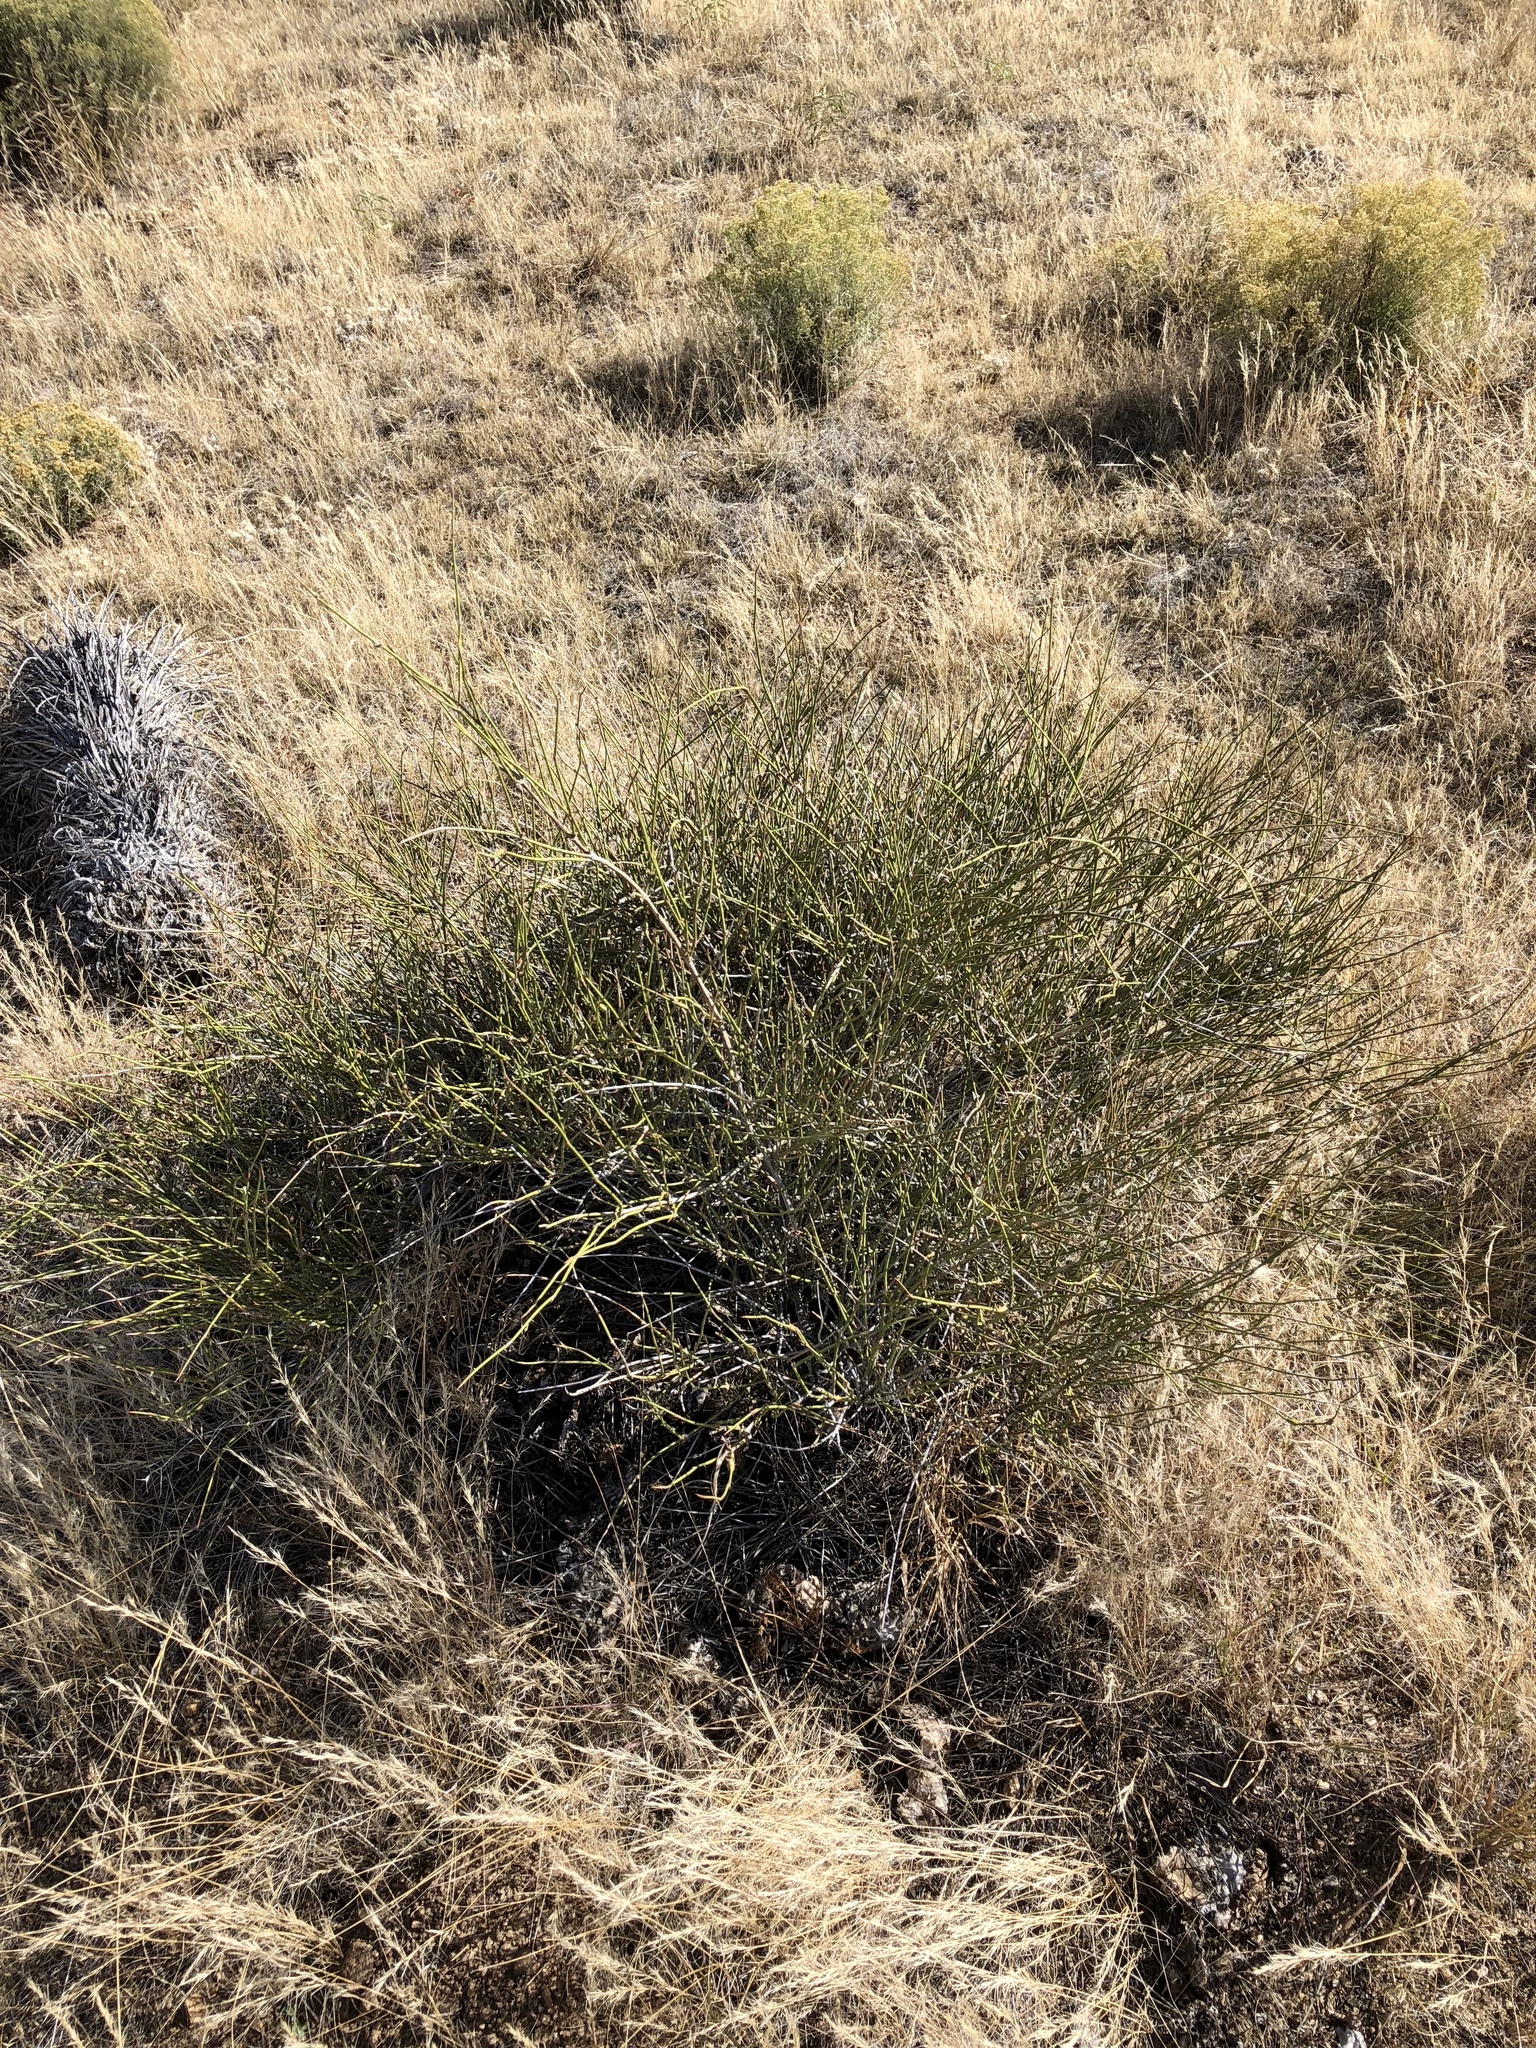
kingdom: Plantae
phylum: Tracheophyta
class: Gnetopsida
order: Ephedrales
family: Ephedraceae
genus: Ephedra
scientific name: Ephedra trifurca
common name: Mexican-tea
